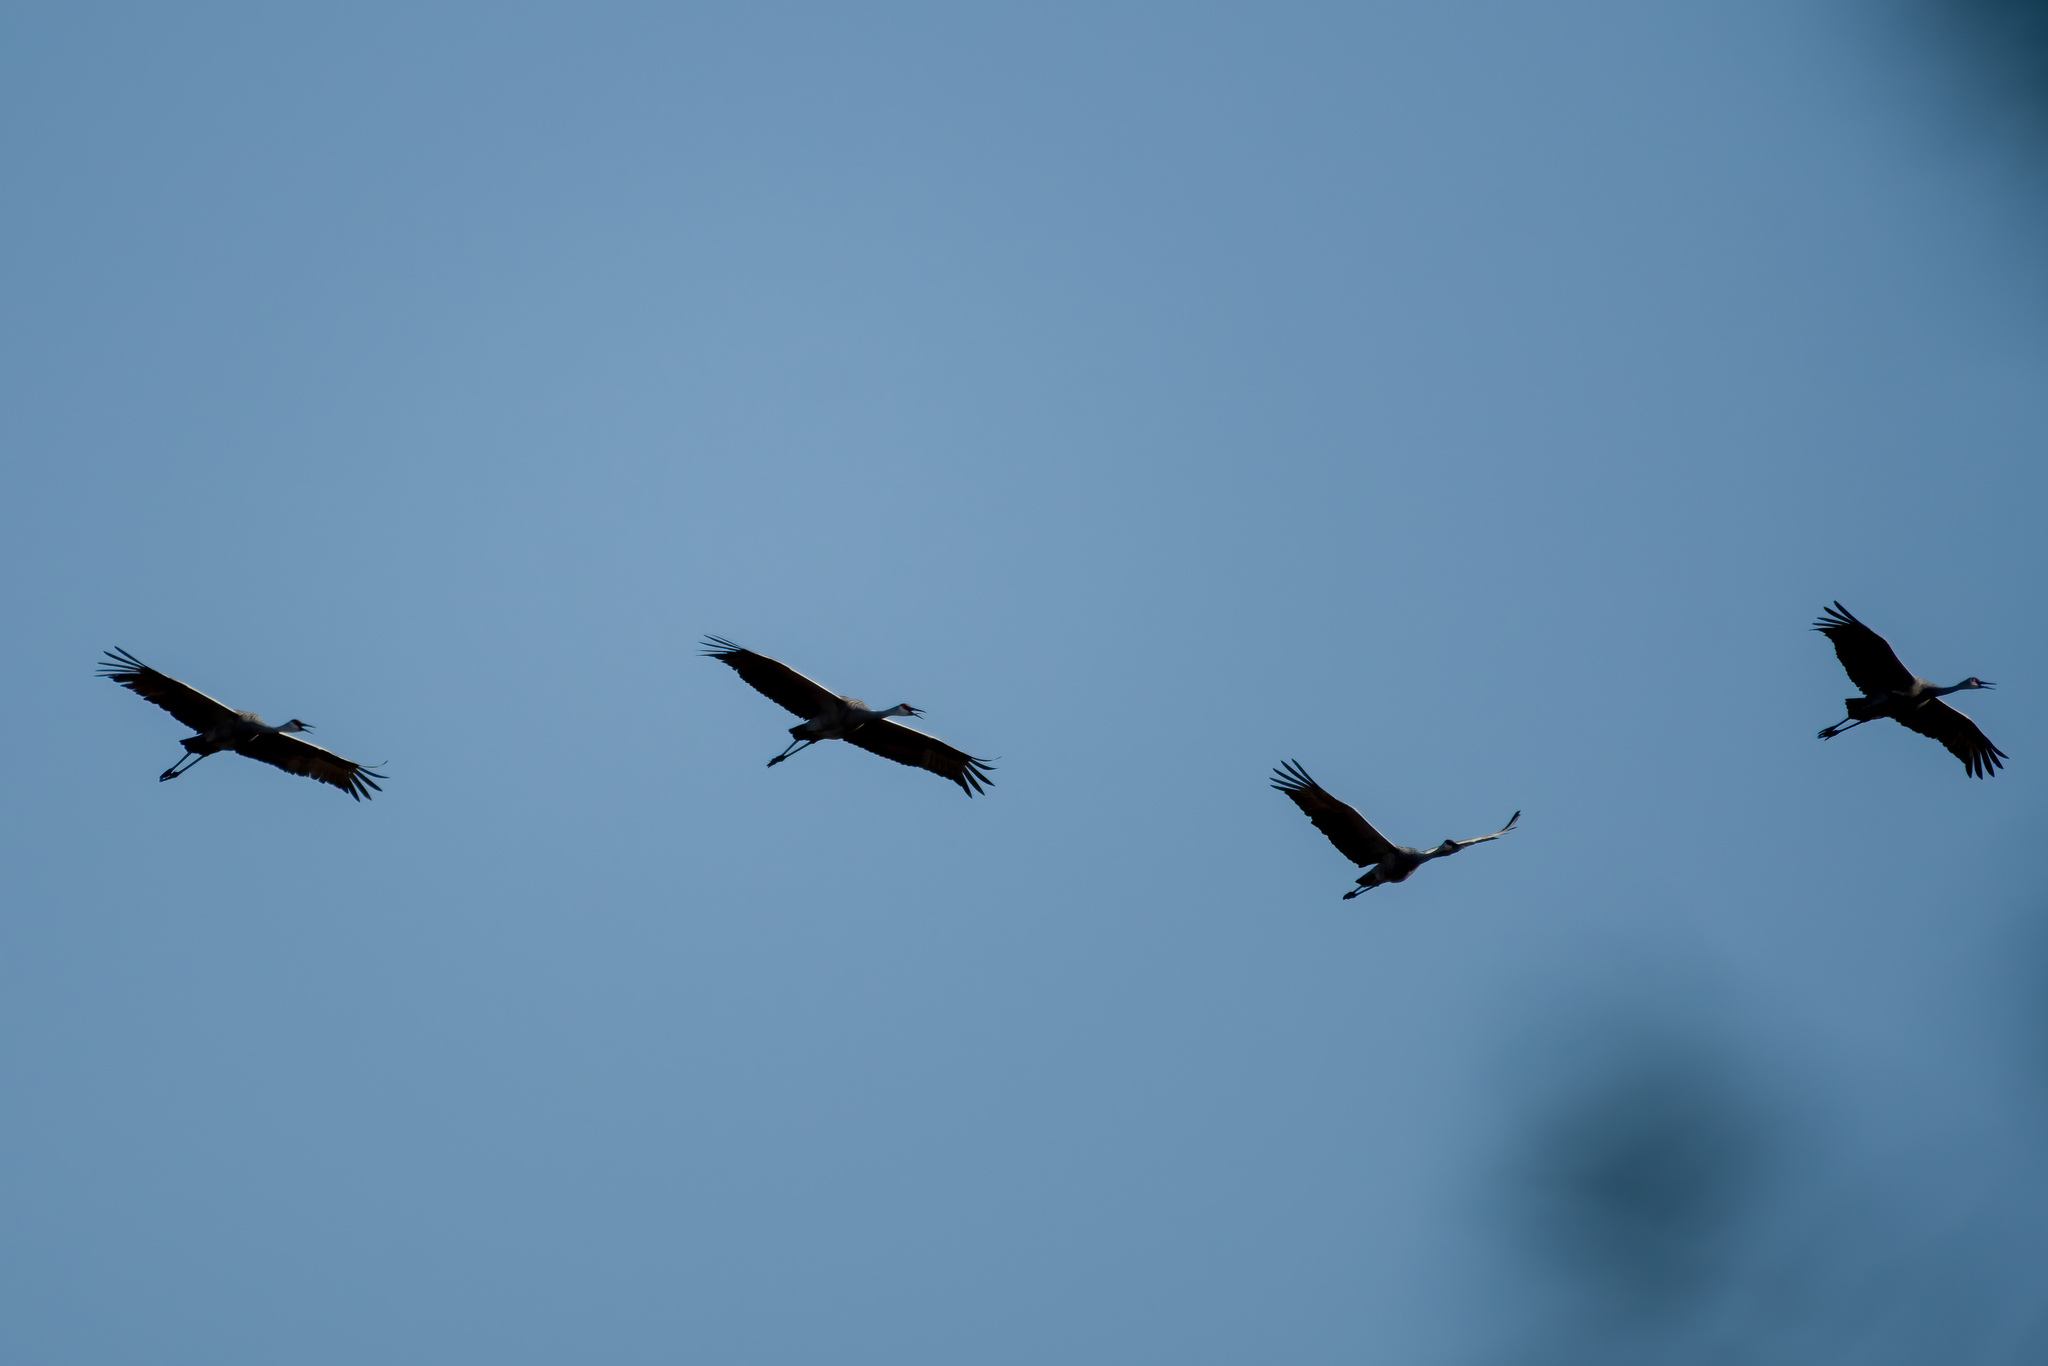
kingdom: Animalia
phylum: Chordata
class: Aves
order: Gruiformes
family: Gruidae
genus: Grus
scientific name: Grus canadensis
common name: Sandhill crane
